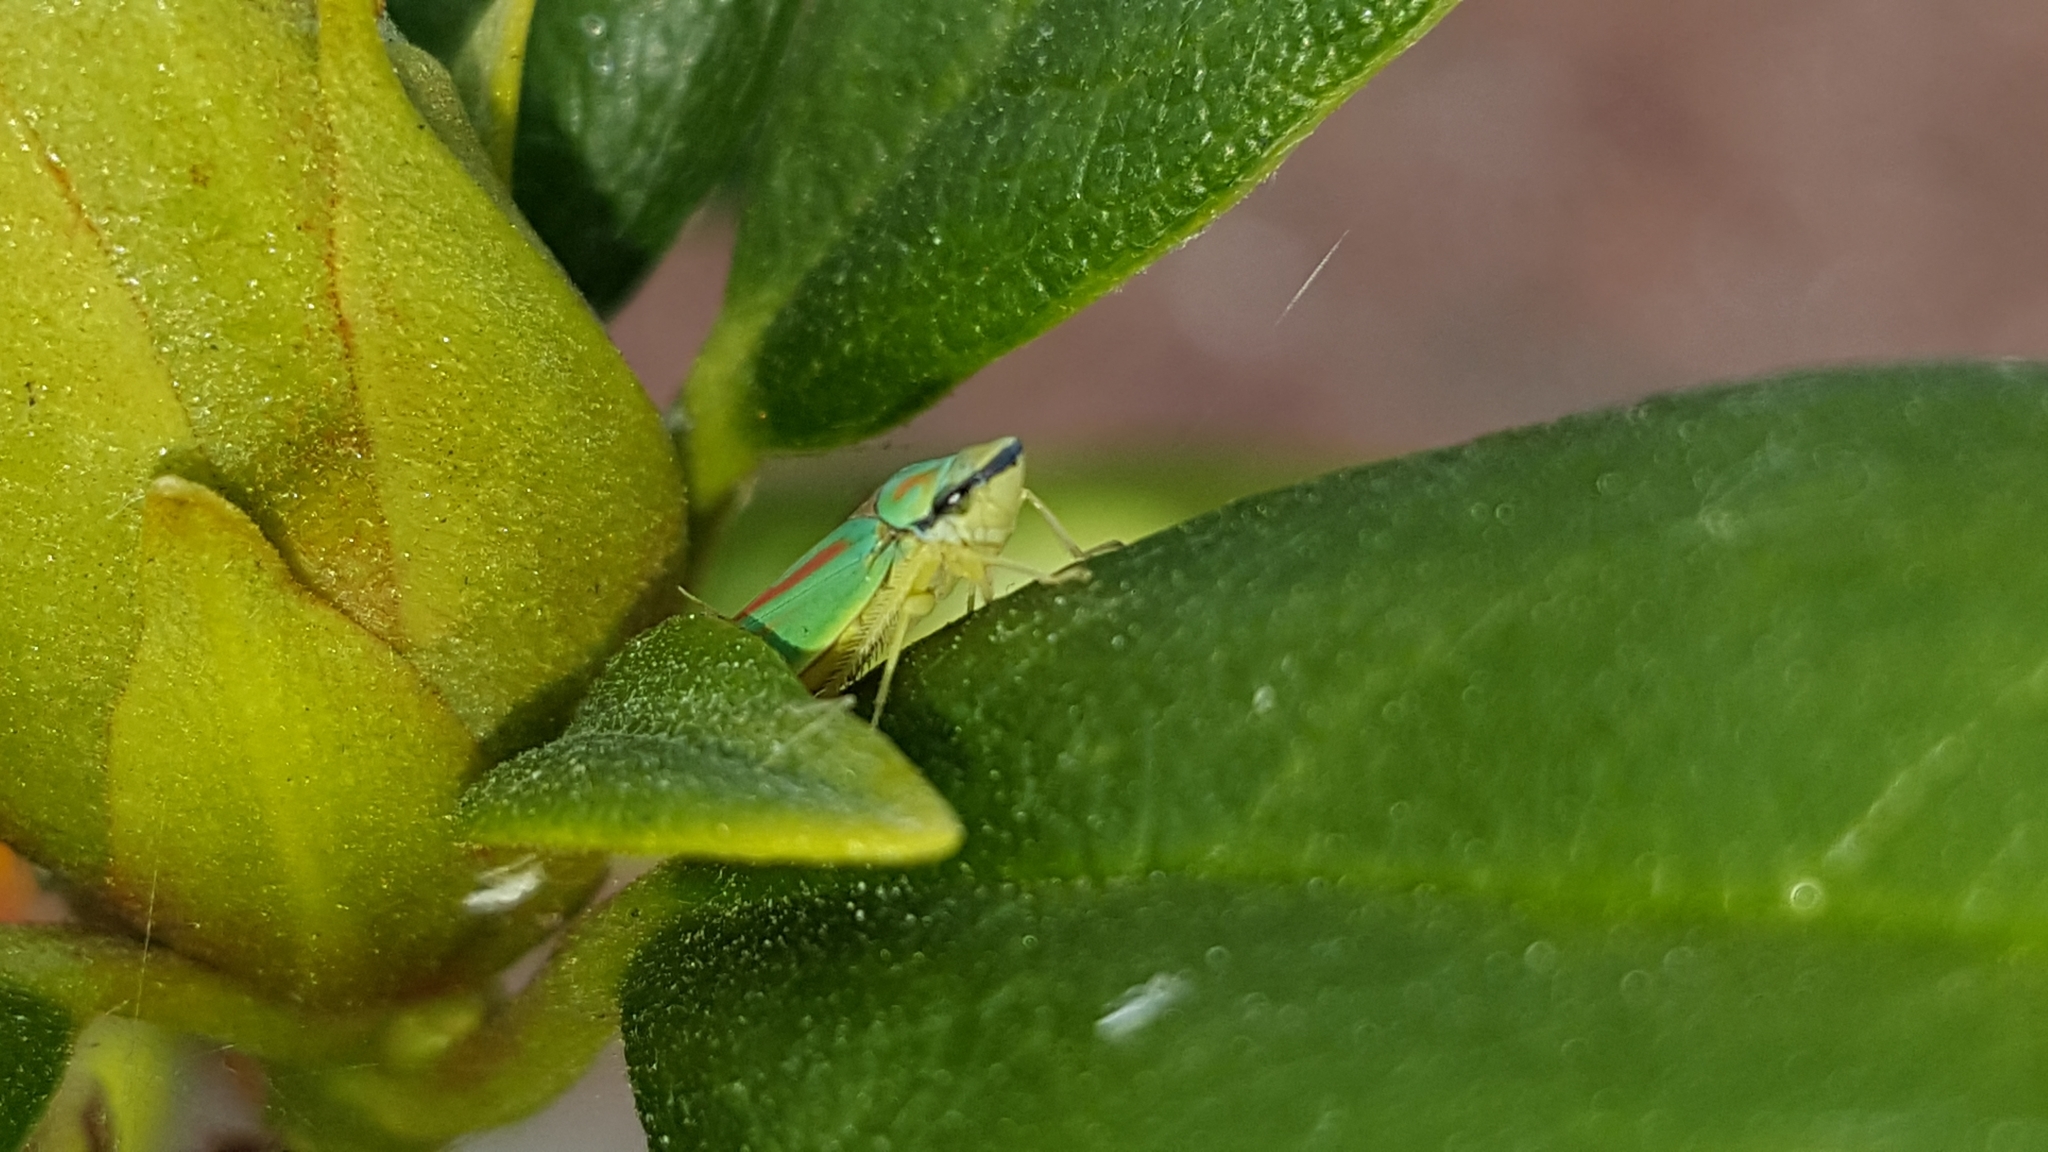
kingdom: Animalia
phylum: Arthropoda
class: Insecta
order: Hemiptera
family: Cicadellidae
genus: Graphocephala
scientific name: Graphocephala fennahi
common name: Rhododendron leafhopper
